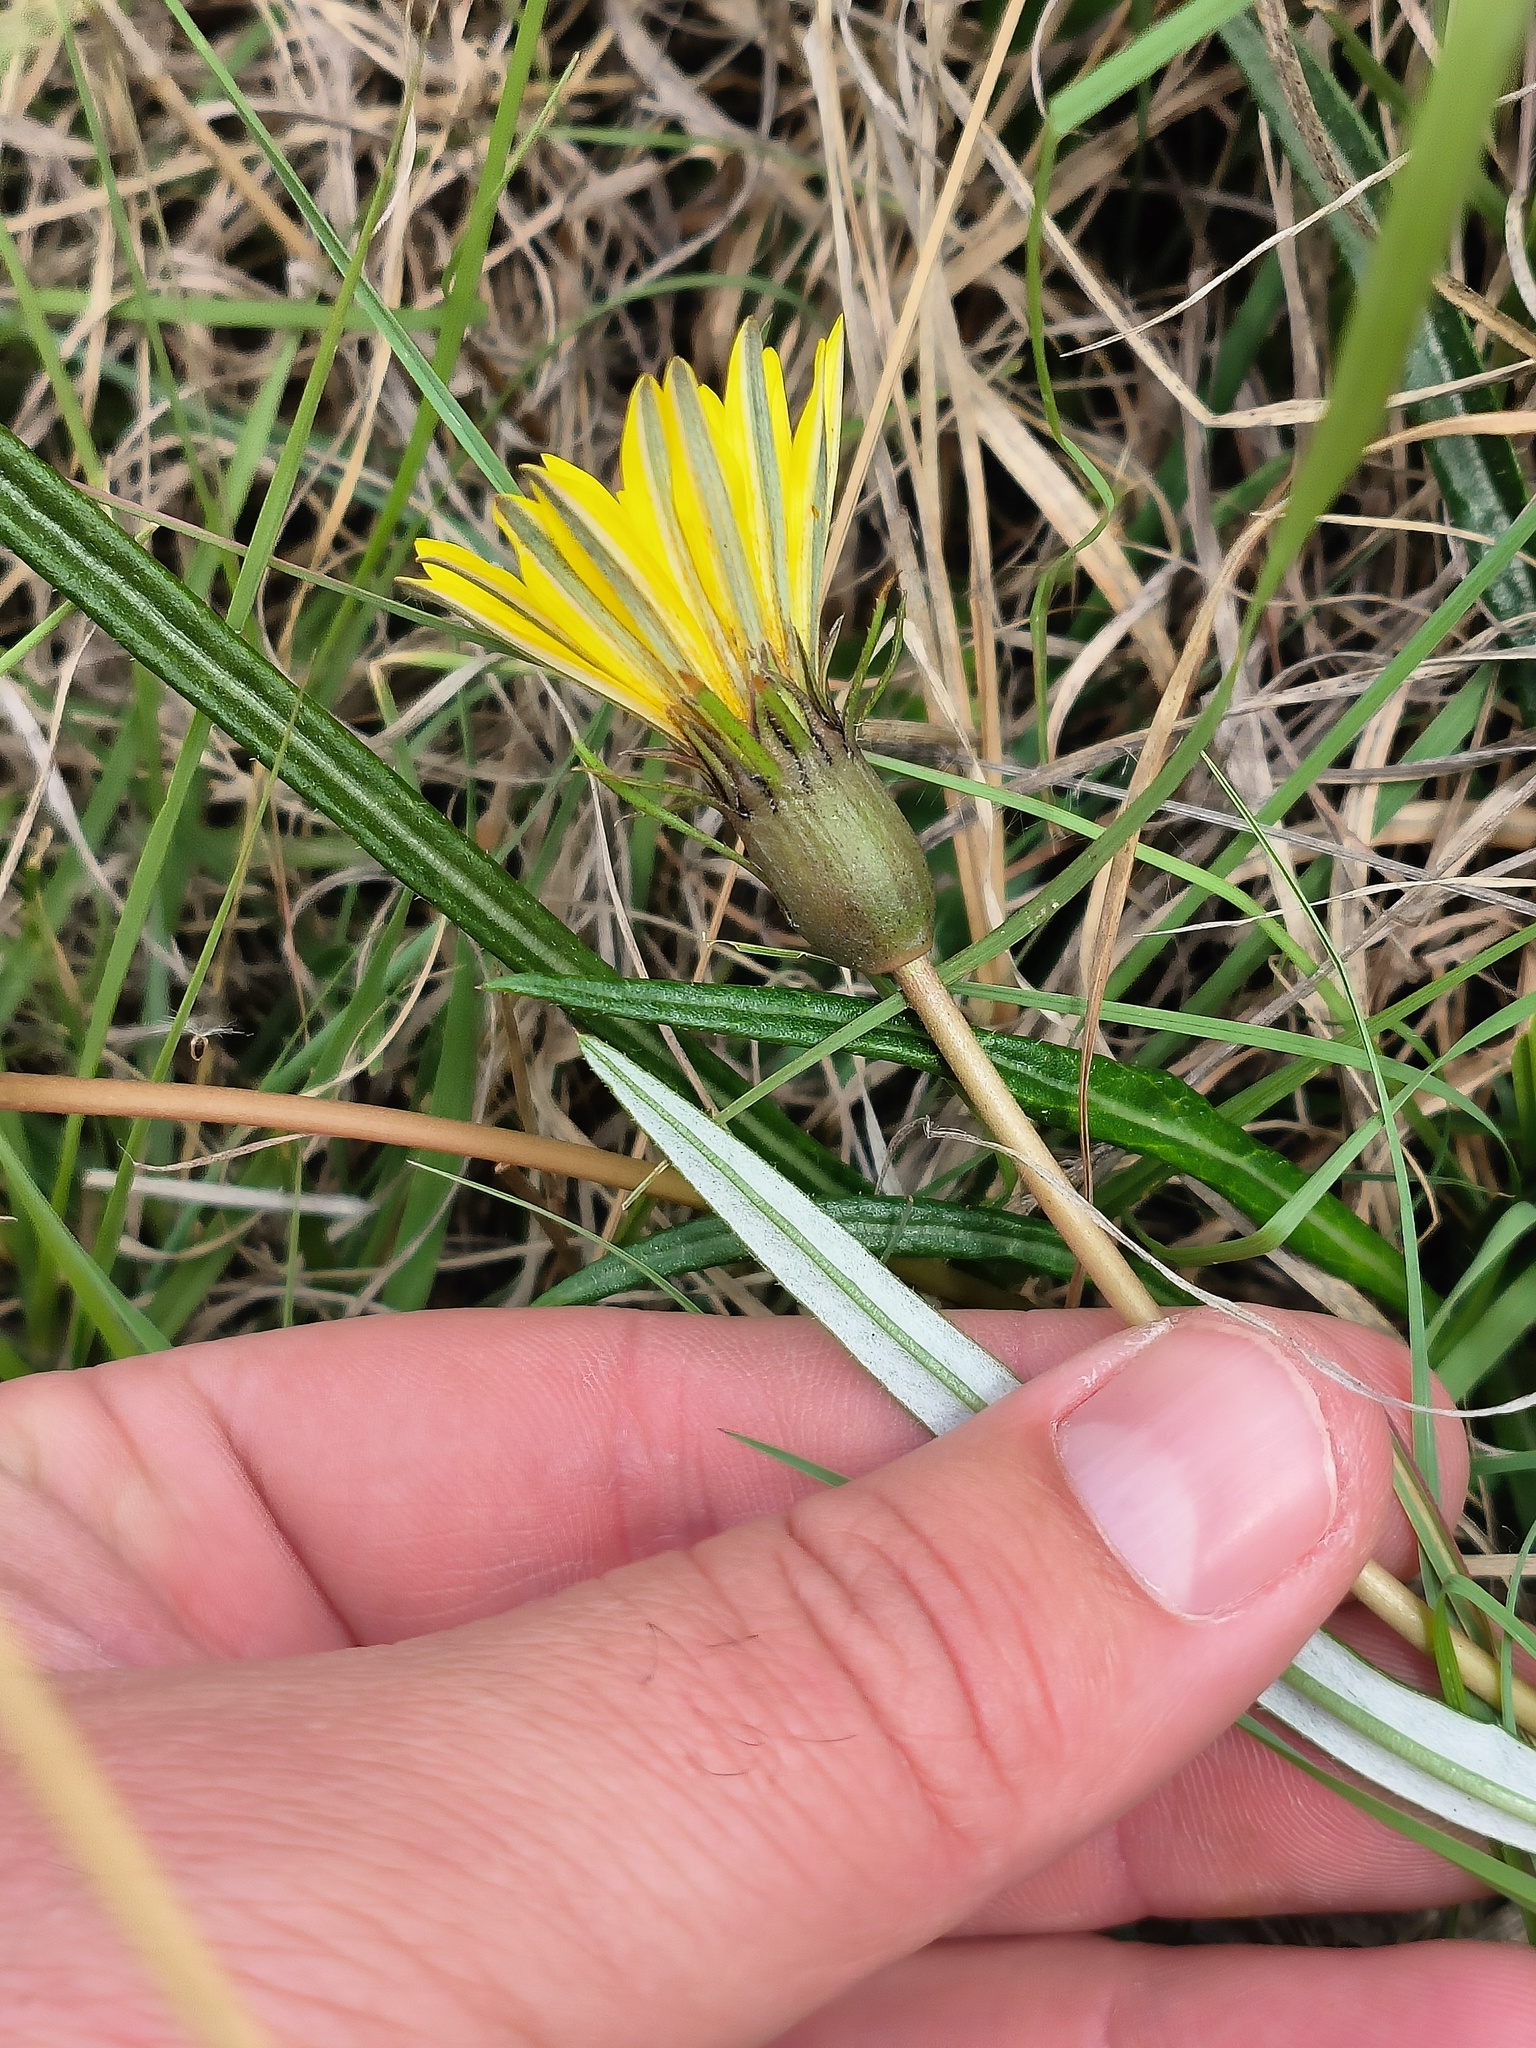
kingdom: Plantae
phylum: Tracheophyta
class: Magnoliopsida
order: Asterales
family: Asteraceae
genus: Gazania
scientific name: Gazania krebsiana
